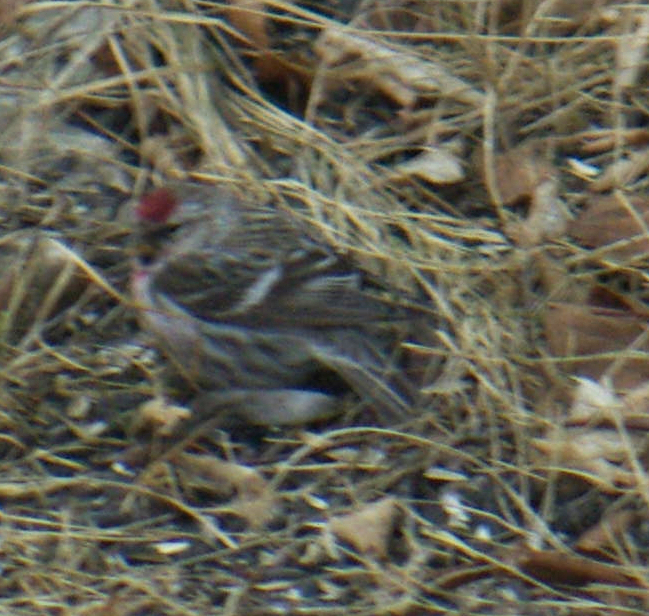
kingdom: Animalia
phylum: Chordata
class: Aves
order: Passeriformes
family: Fringillidae
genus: Acanthis
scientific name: Acanthis flammea
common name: Common redpoll
